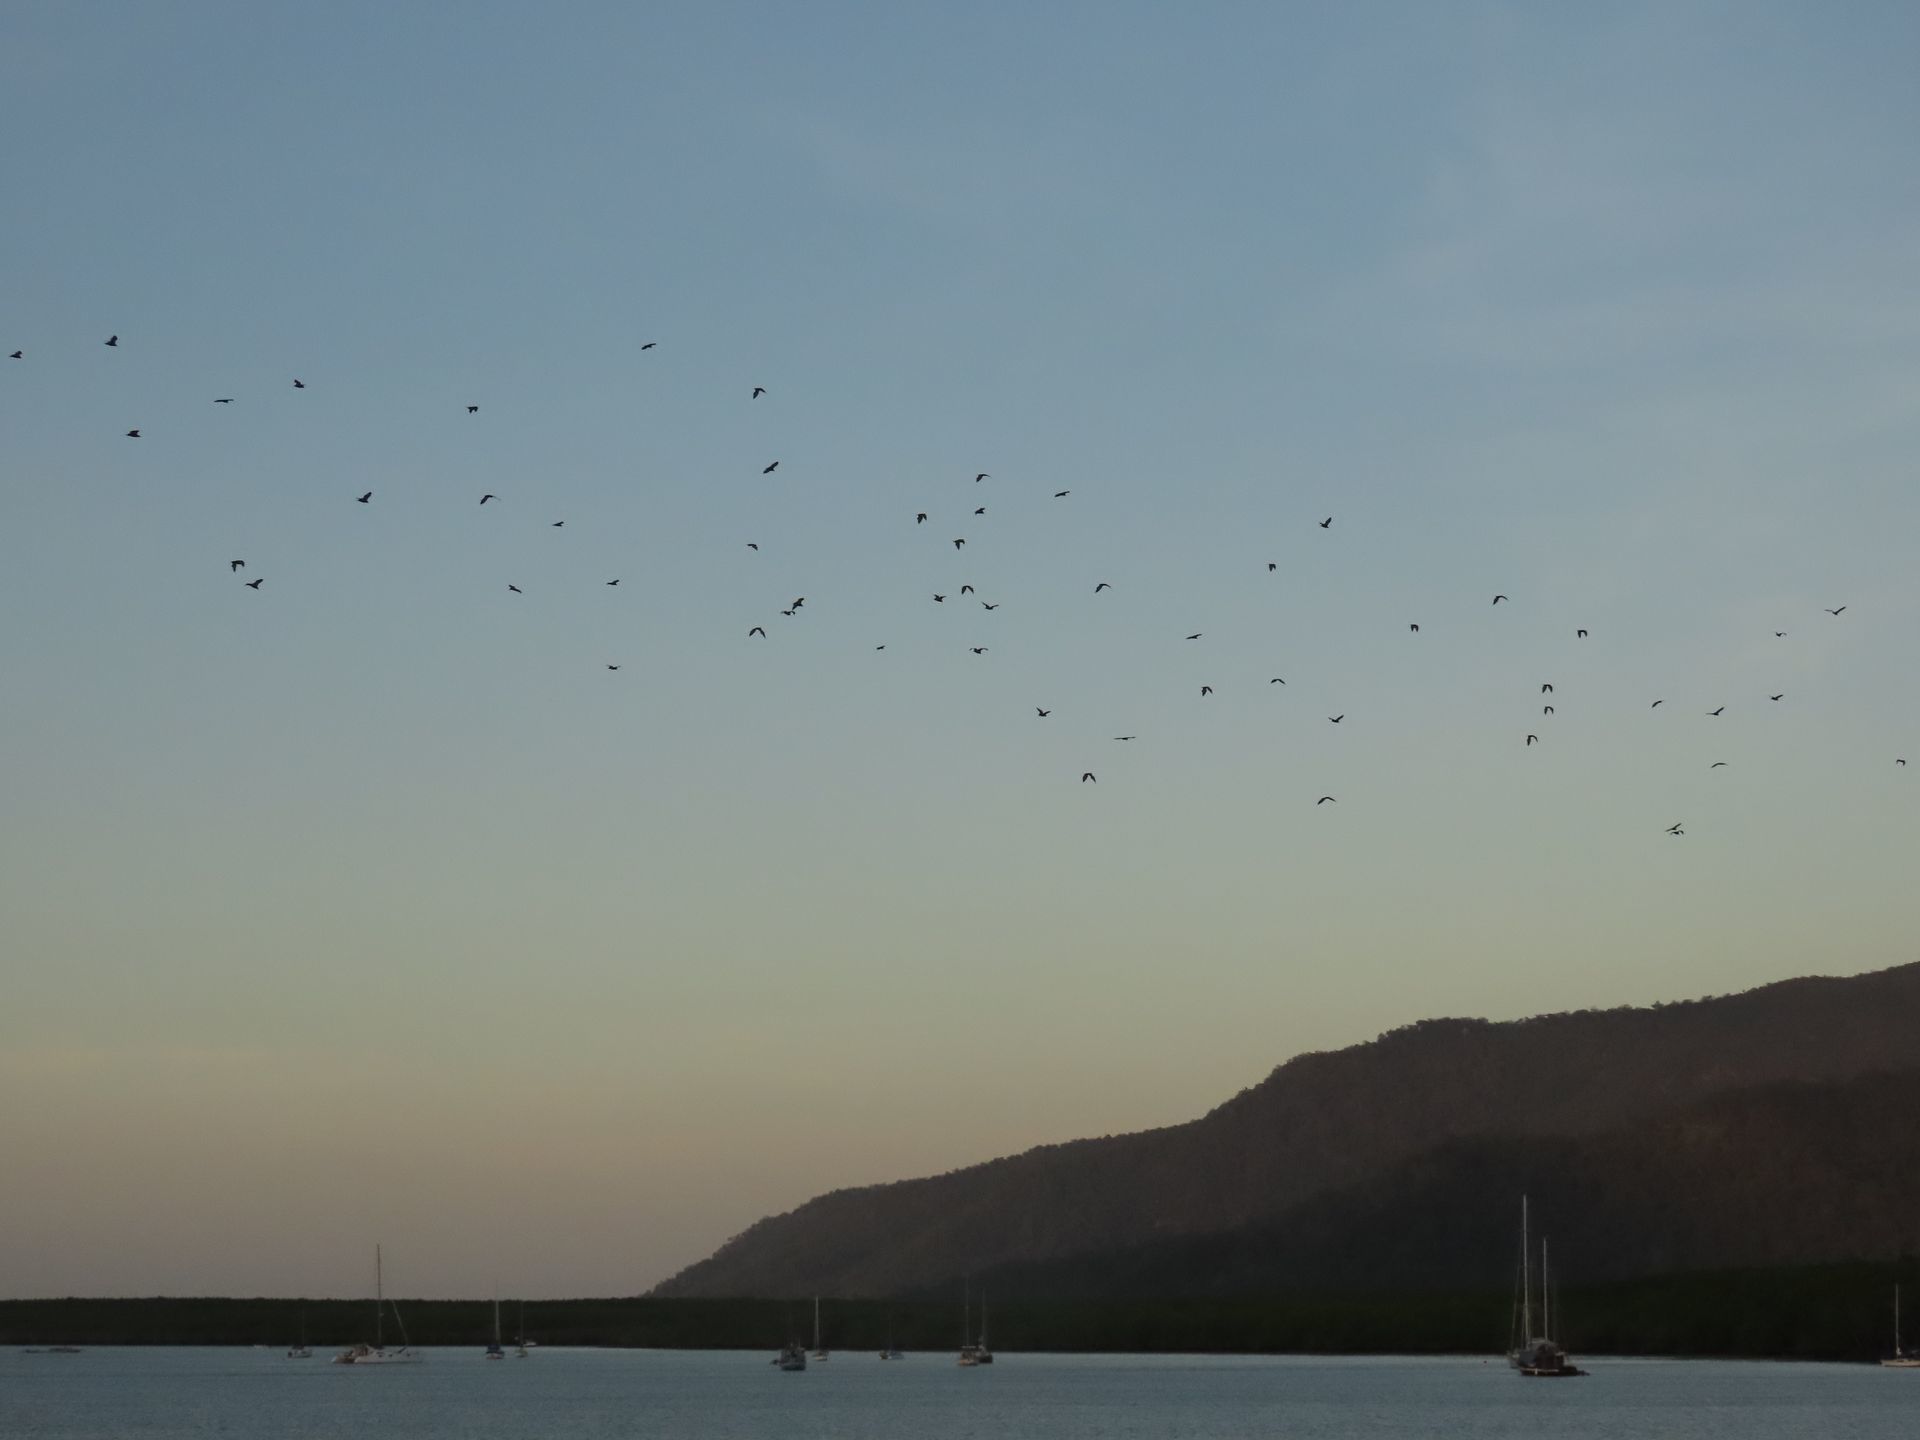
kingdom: Animalia
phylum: Chordata
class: Mammalia
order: Chiroptera
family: Pteropodidae
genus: Pteropus
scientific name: Pteropus conspicillatus
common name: Spectacled flying fox
